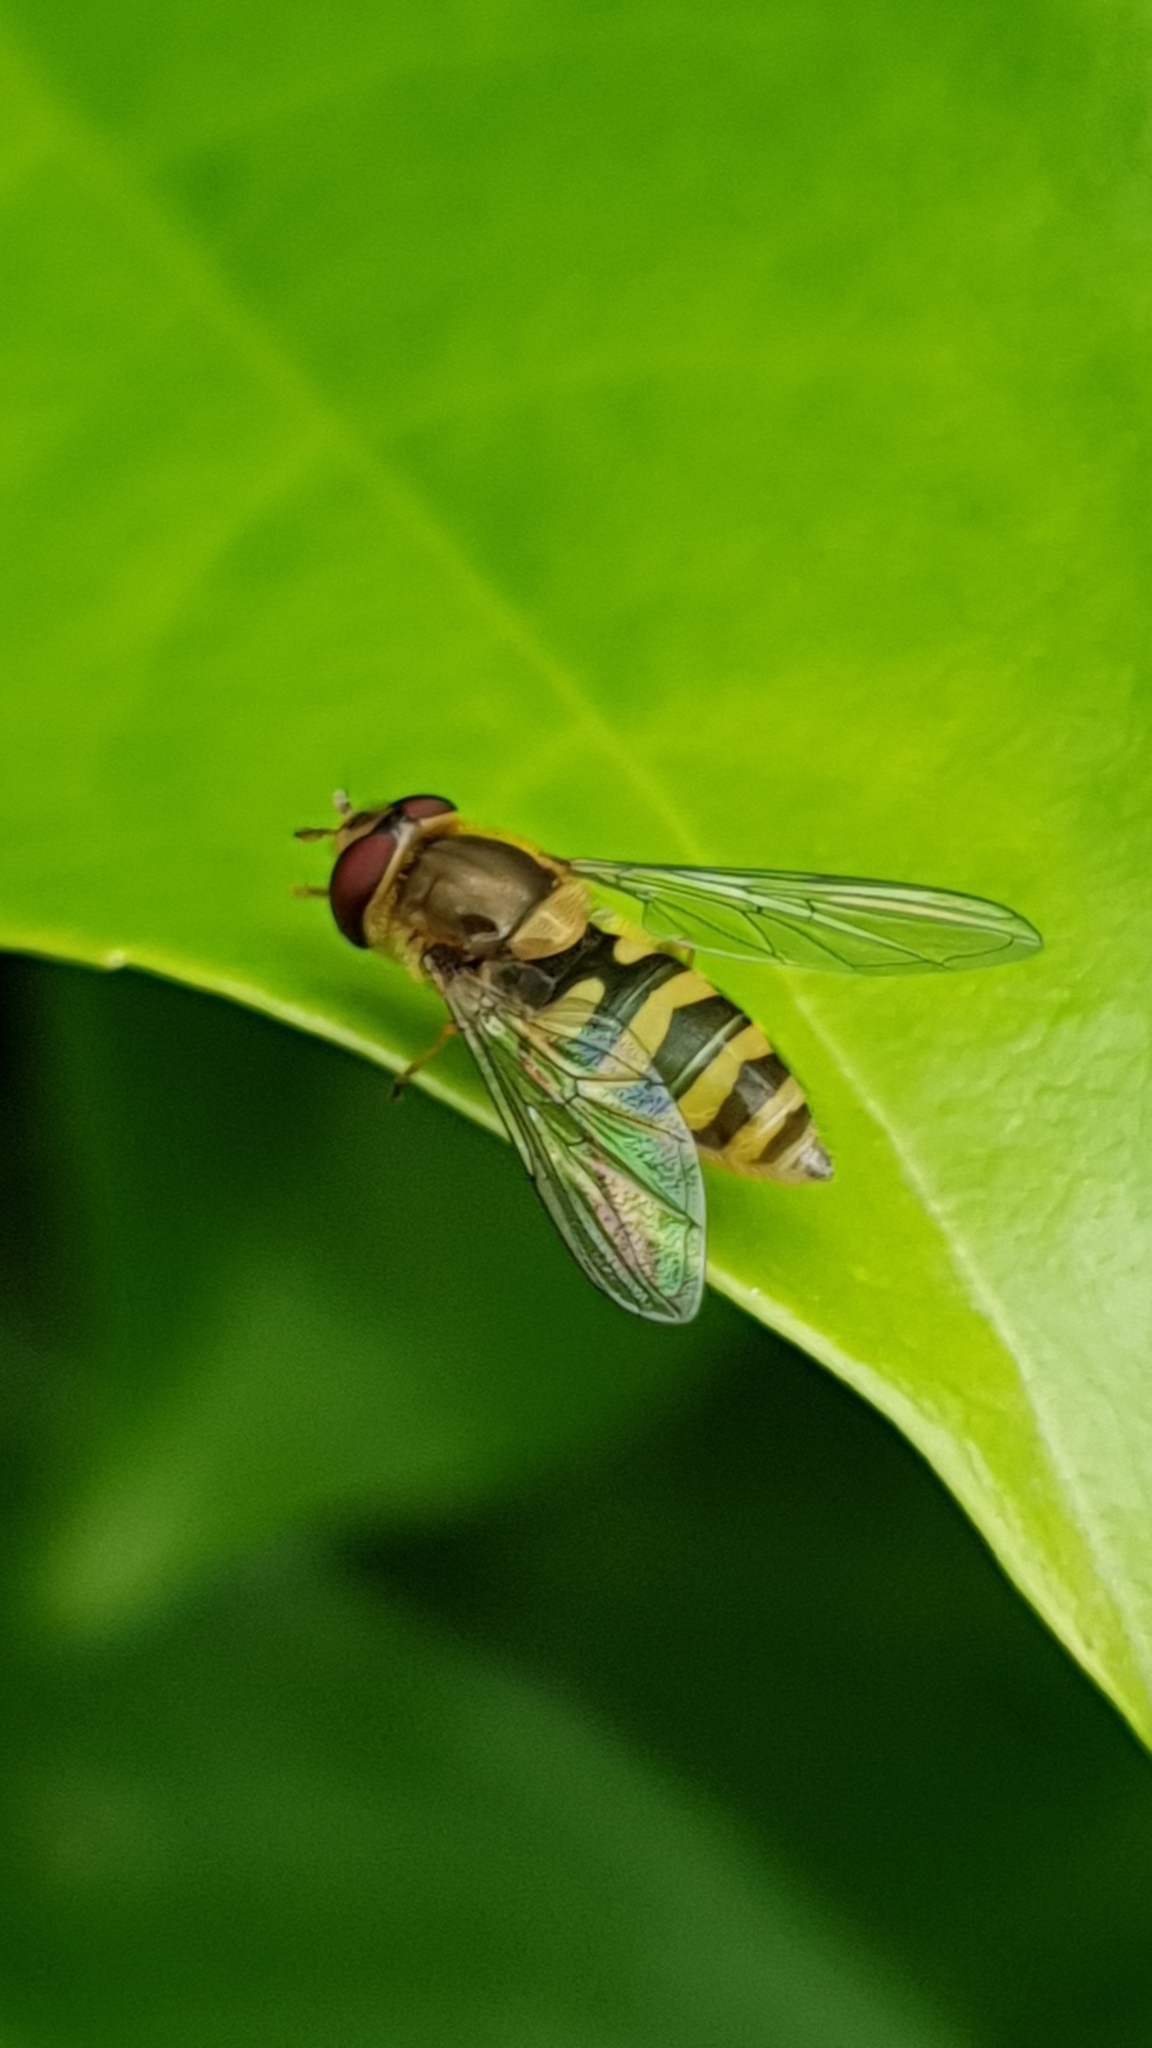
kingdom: Animalia
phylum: Arthropoda
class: Insecta
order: Diptera
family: Syrphidae
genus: Syrphus
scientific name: Syrphus
